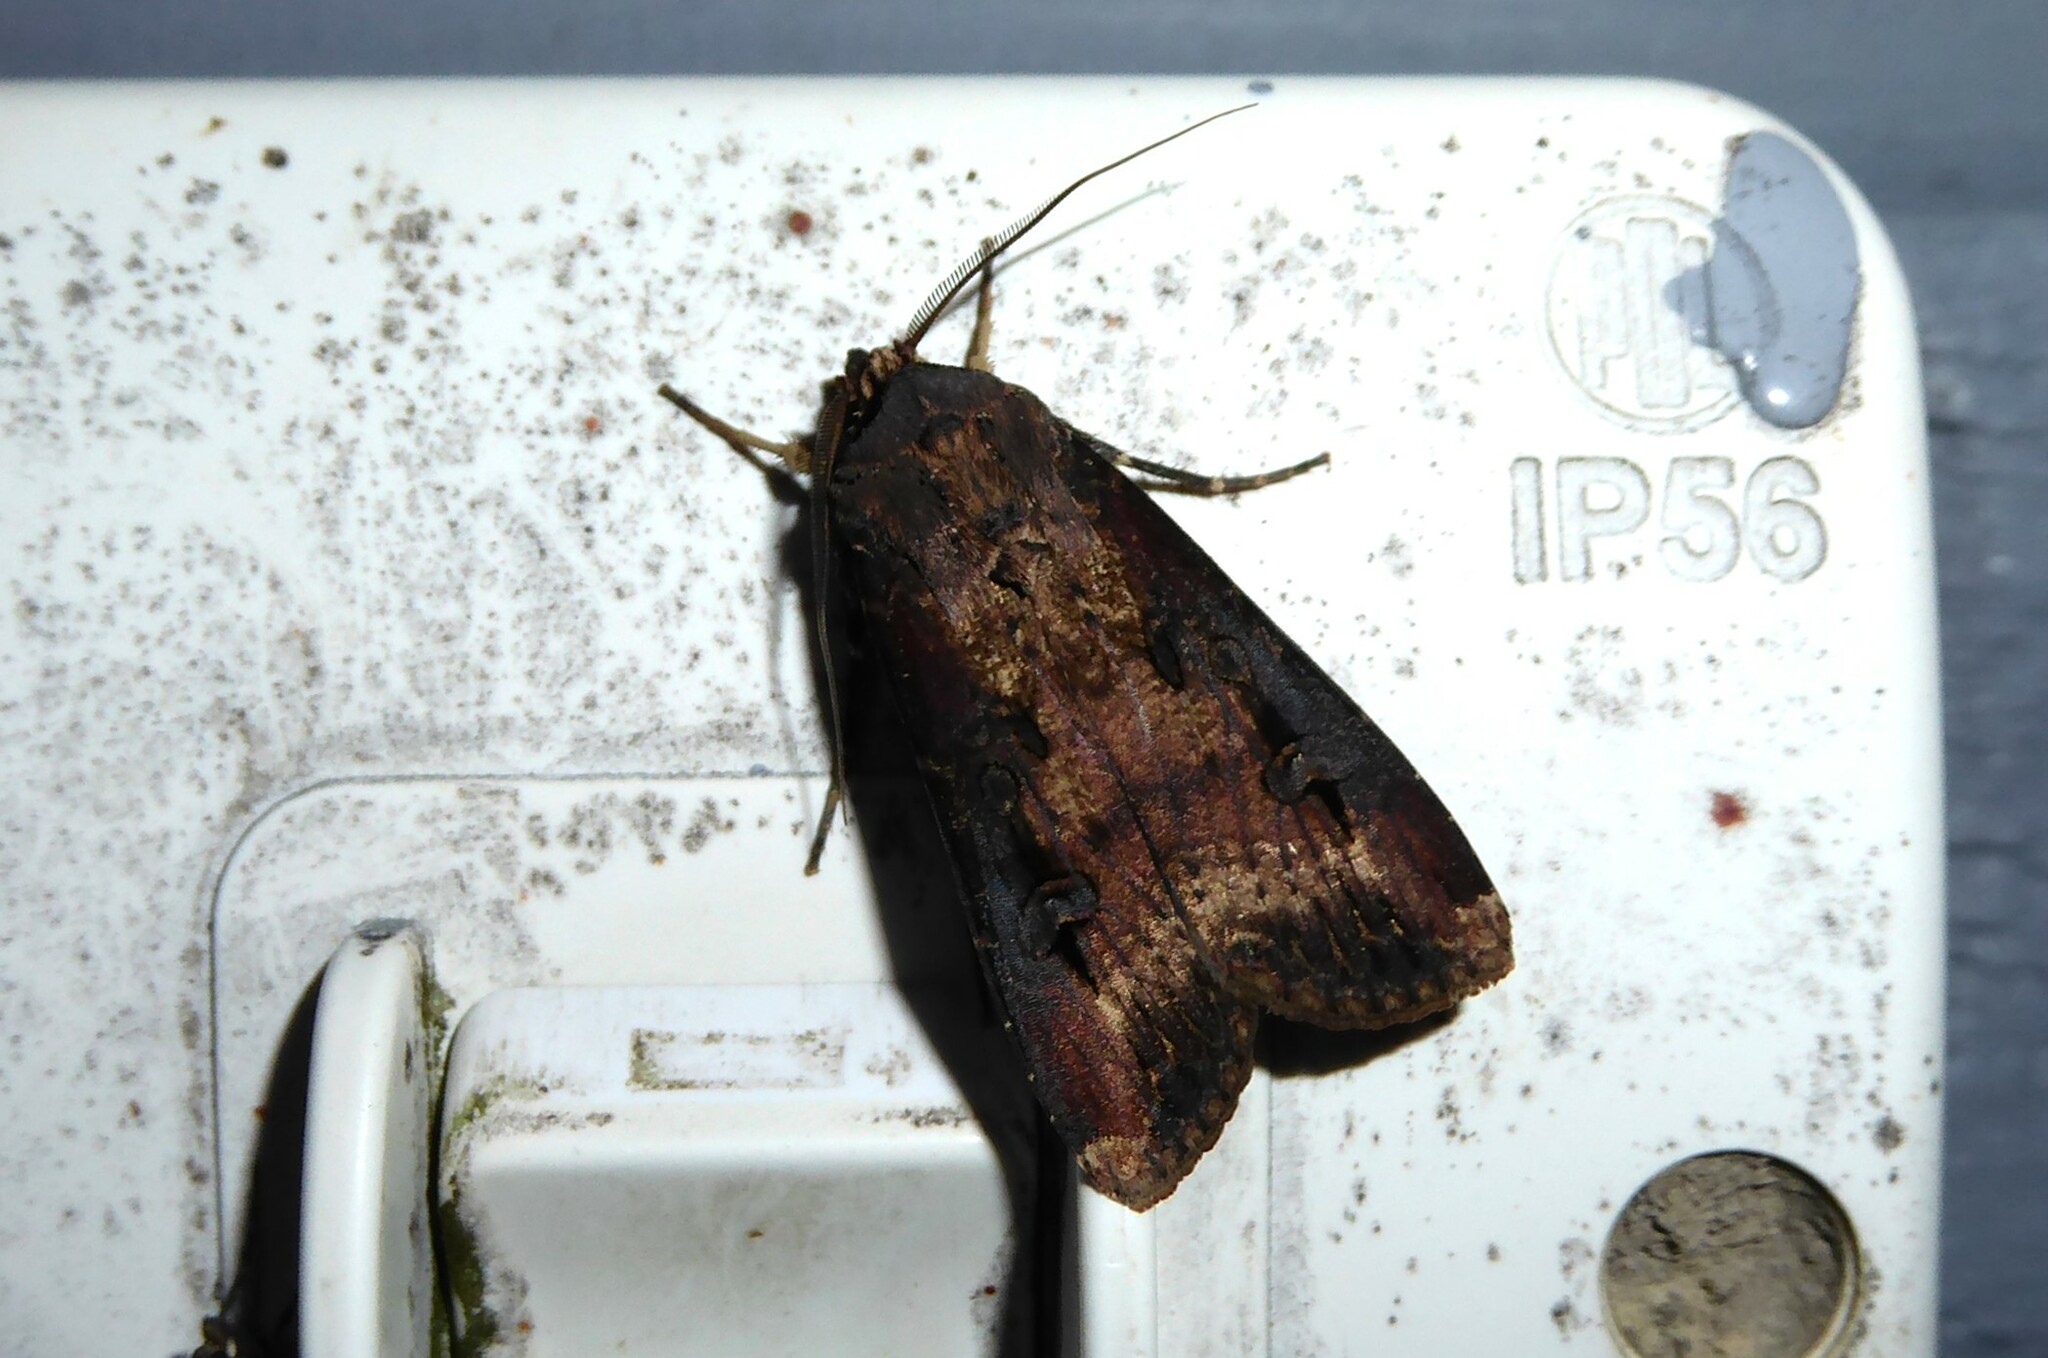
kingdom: Animalia
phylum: Arthropoda
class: Insecta
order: Lepidoptera
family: Noctuidae
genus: Agrotis
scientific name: Agrotis ipsilon
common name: Dark sword-grass
